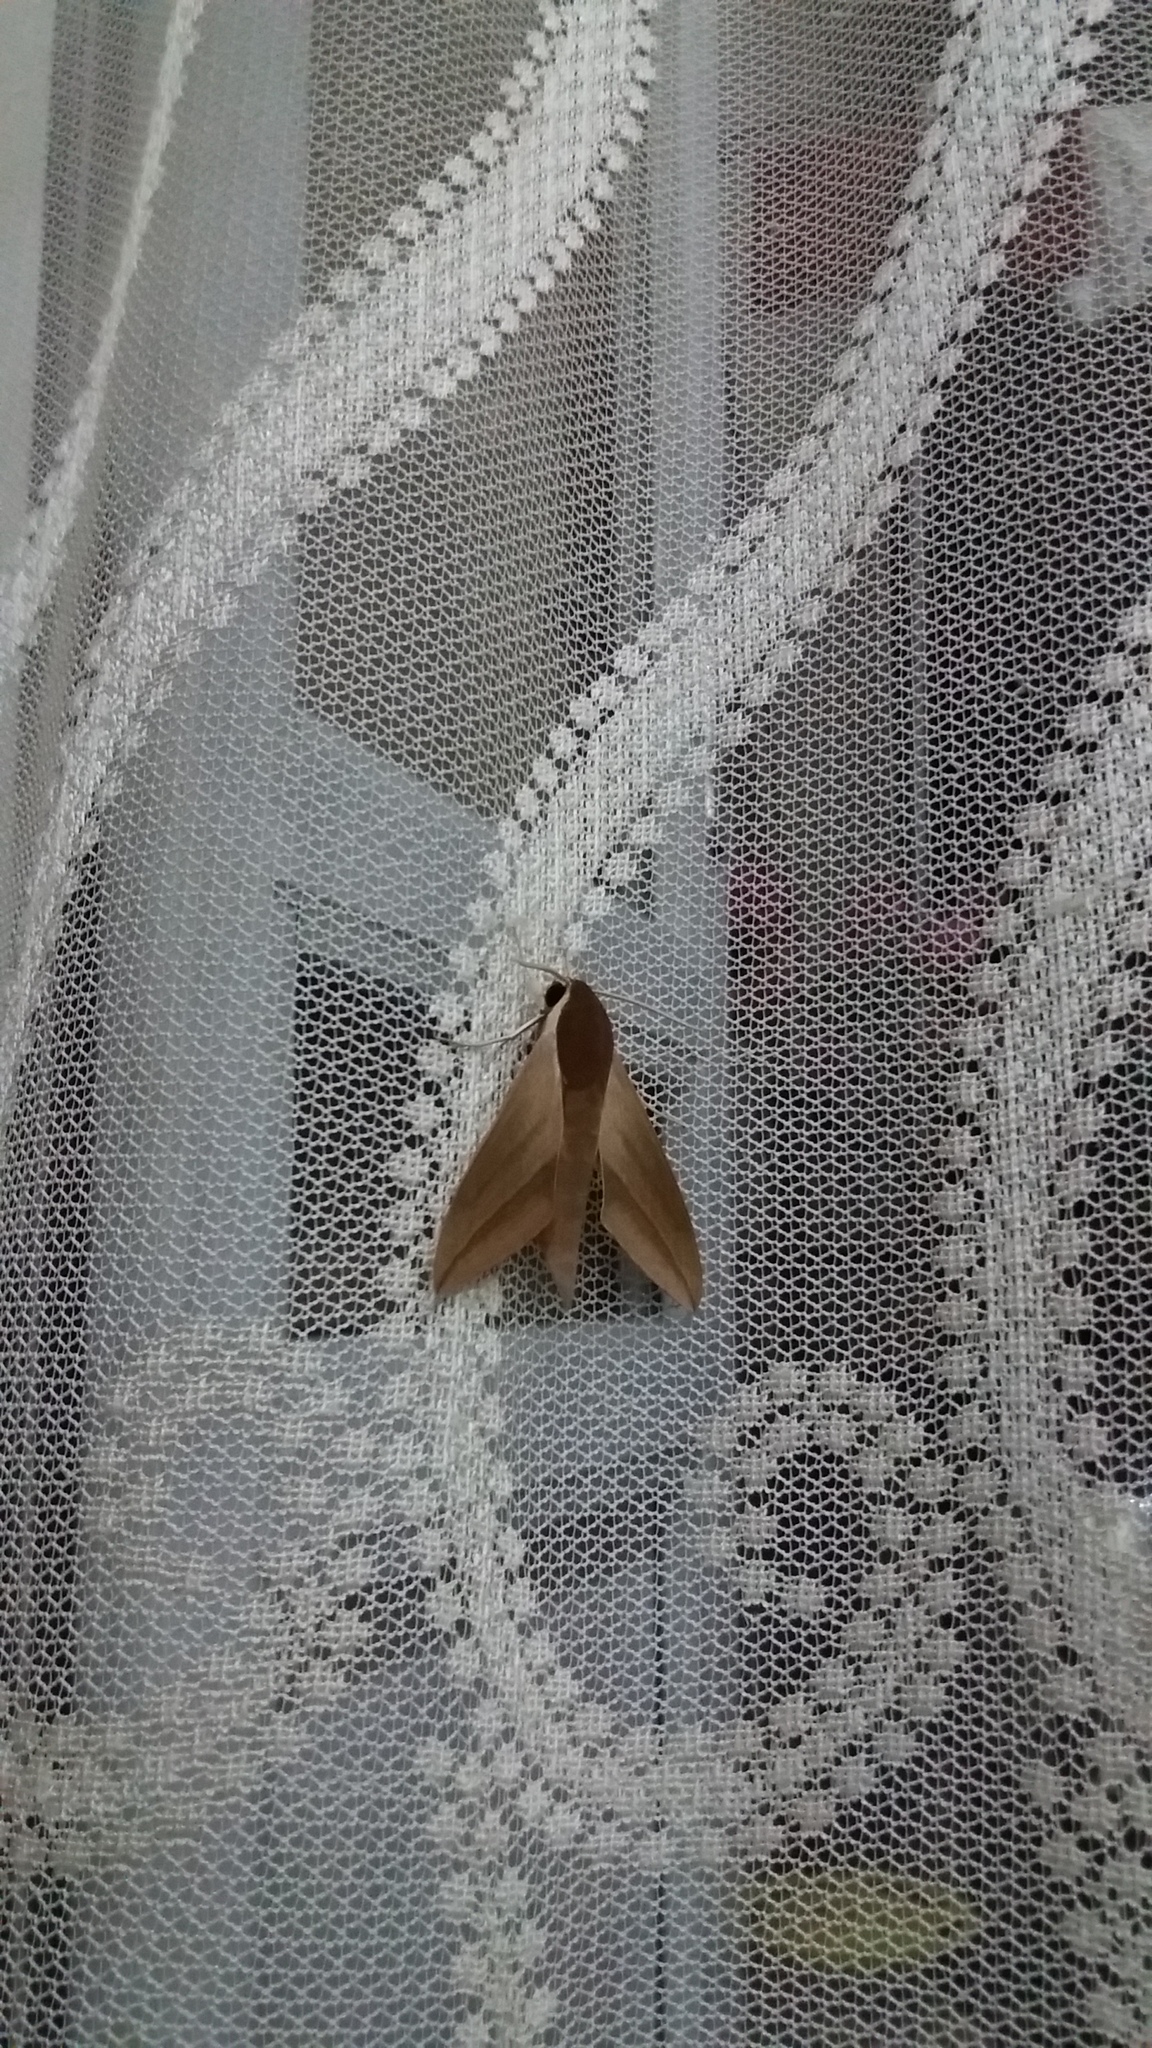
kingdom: Animalia
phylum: Arthropoda
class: Insecta
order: Lepidoptera
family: Sphingidae
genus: Theretra
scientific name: Theretra alecto
